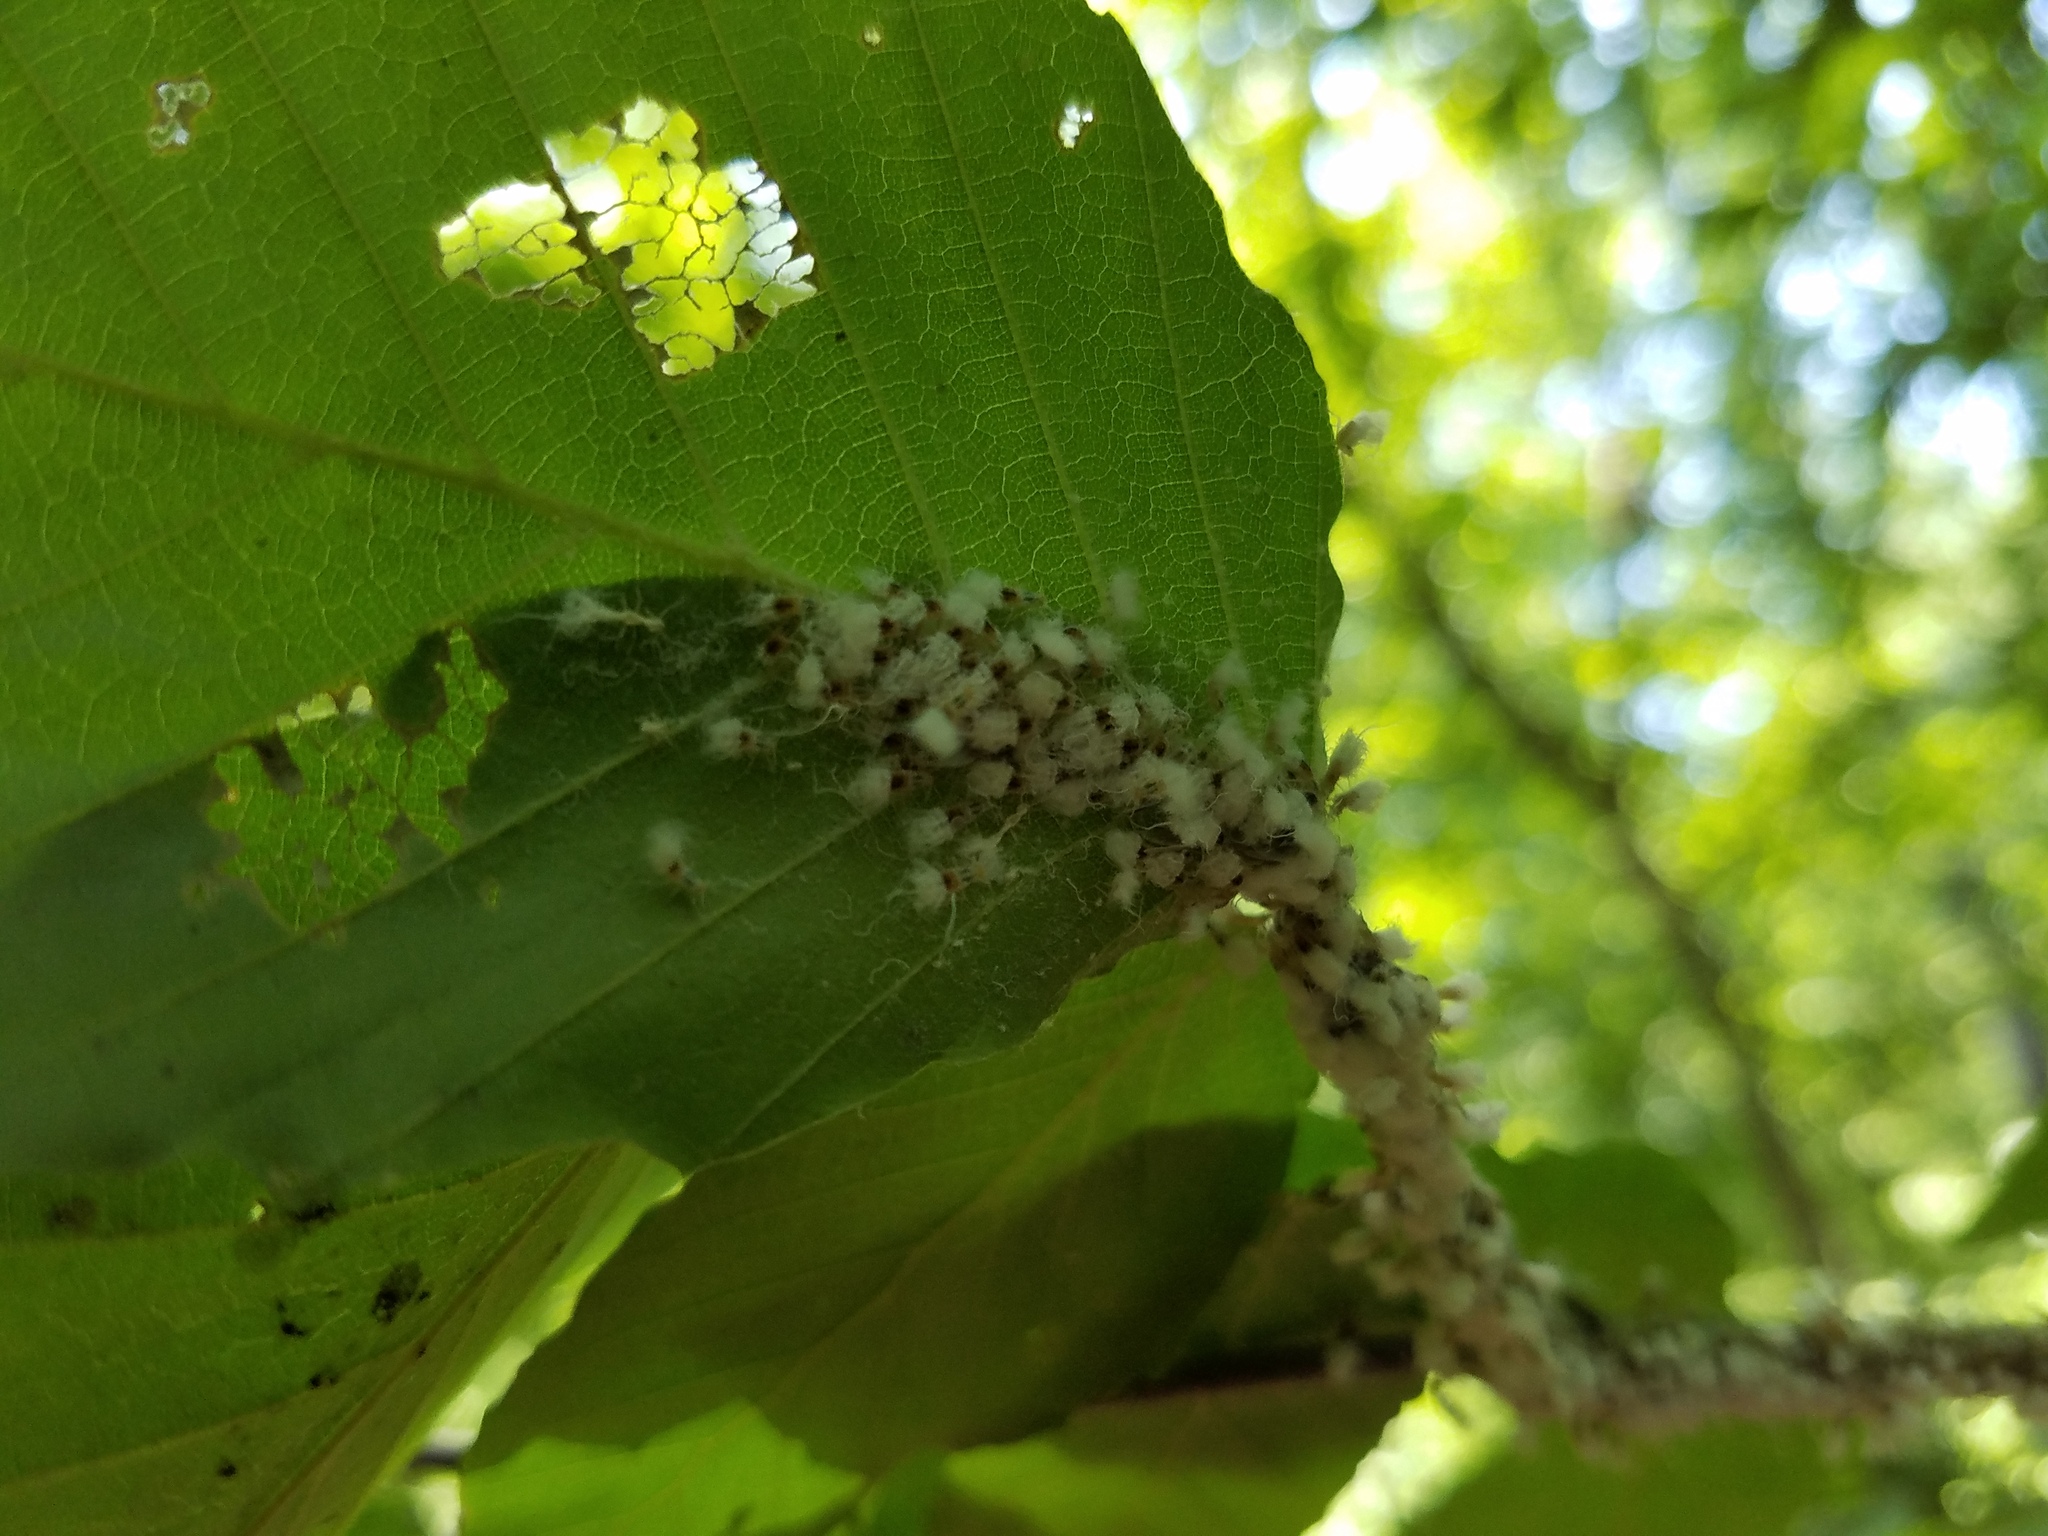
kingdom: Animalia
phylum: Arthropoda
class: Insecta
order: Hemiptera
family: Aphididae
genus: Grylloprociphilus
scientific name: Grylloprociphilus imbricator
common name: Beech blight aphid
